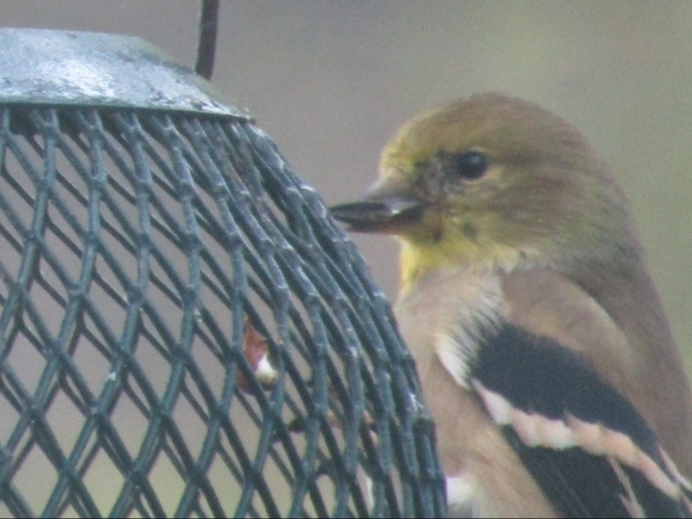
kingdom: Animalia
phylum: Chordata
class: Aves
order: Passeriformes
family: Fringillidae
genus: Spinus
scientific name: Spinus tristis
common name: American goldfinch
